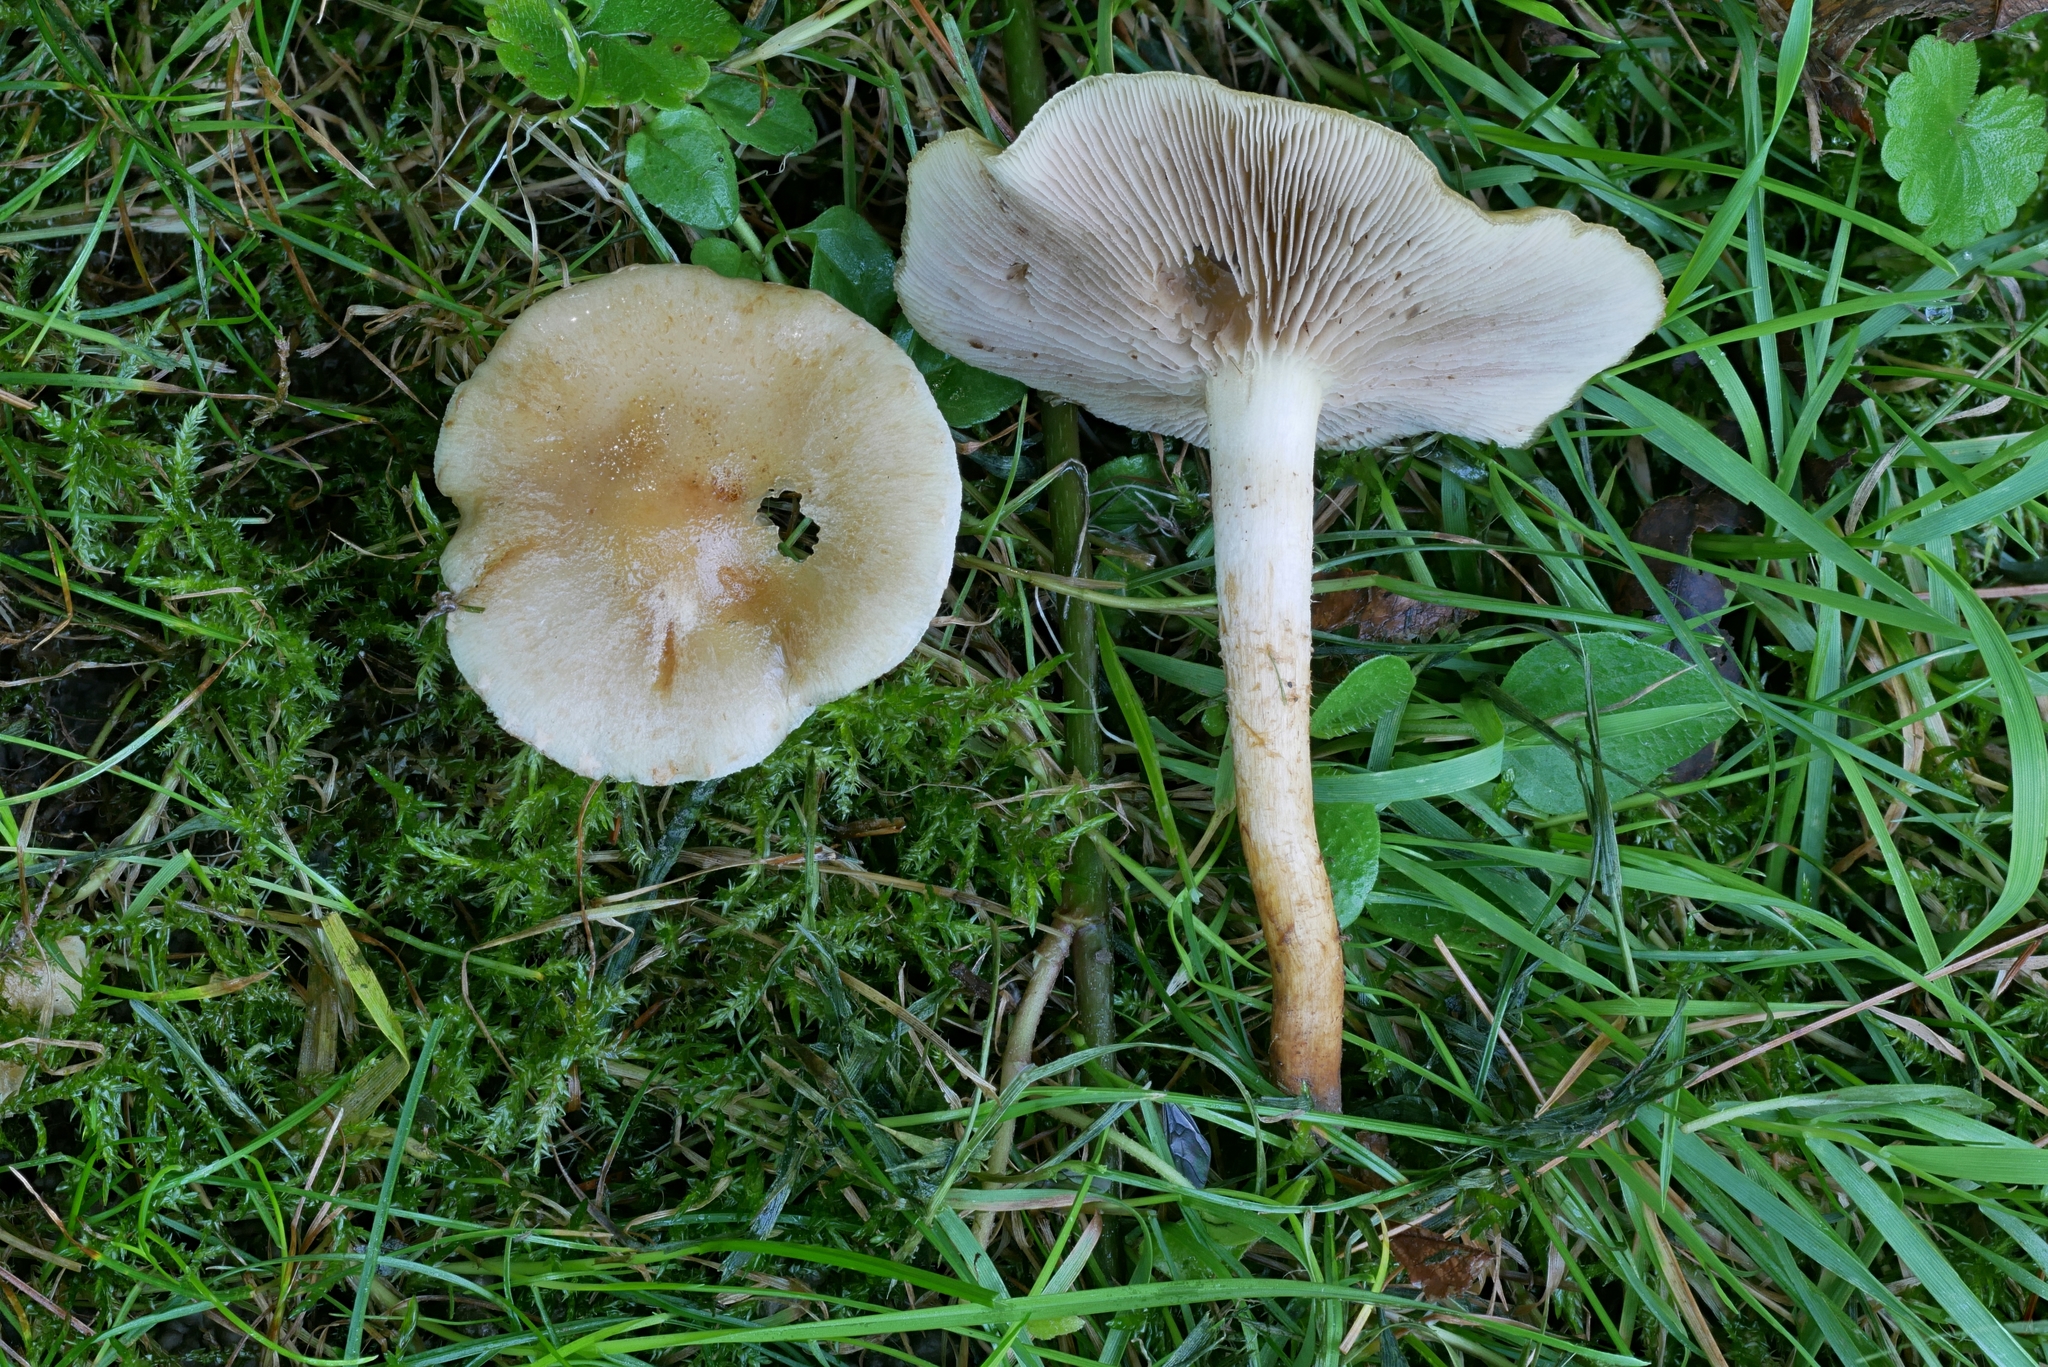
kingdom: Fungi
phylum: Basidiomycota
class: Agaricomycetes
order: Agaricales
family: Strophariaceae
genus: Pholiota
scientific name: Pholiota terrestris
